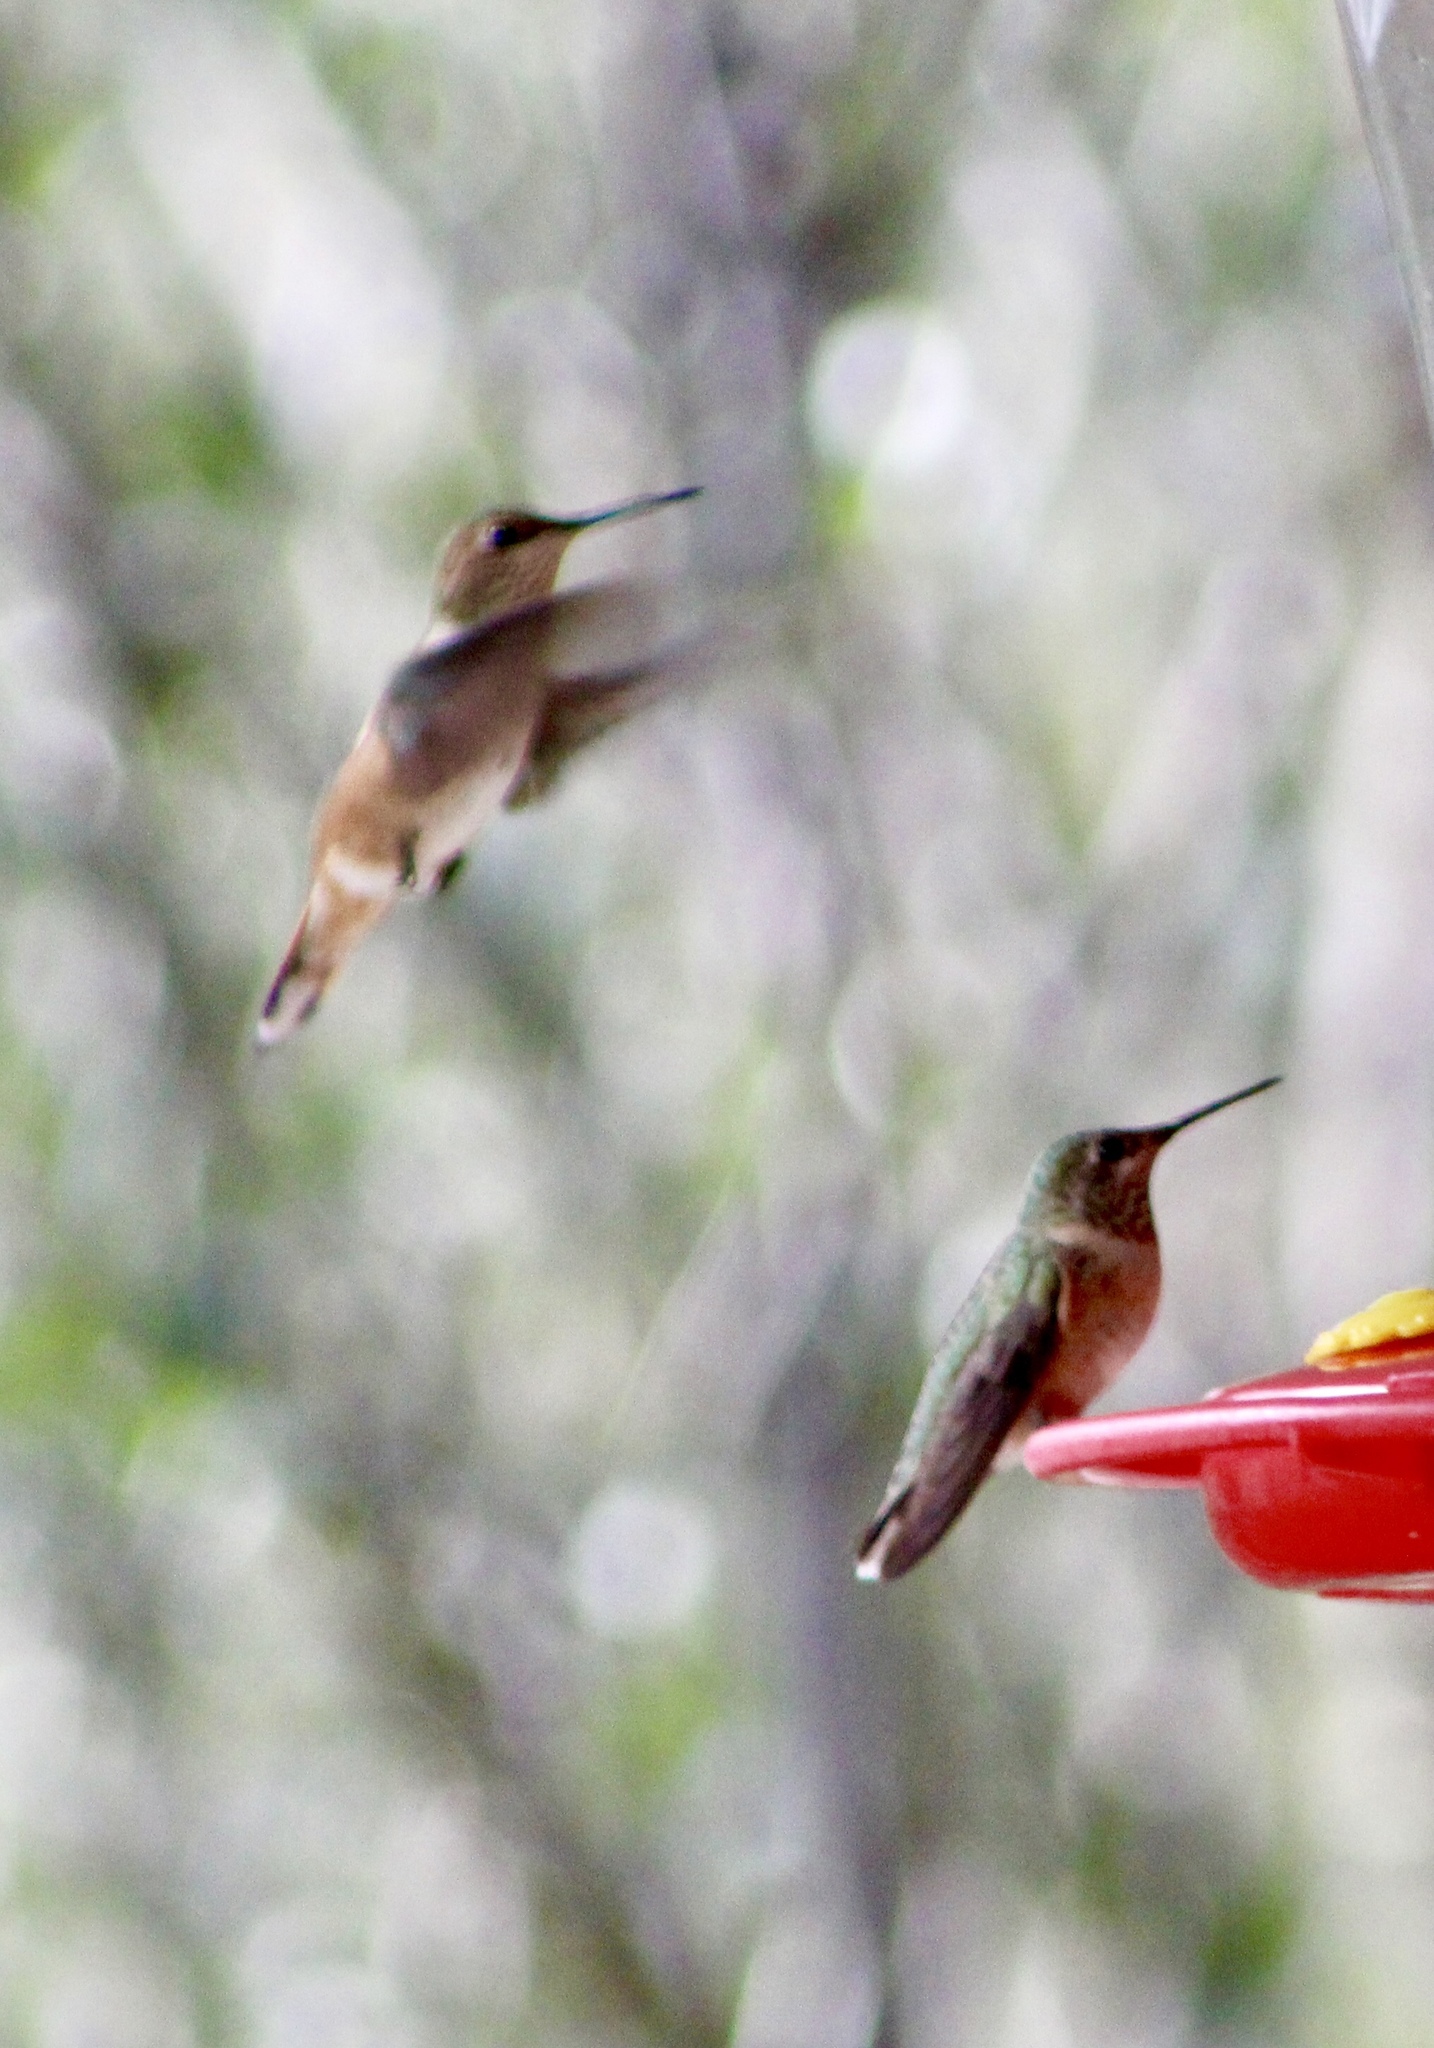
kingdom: Animalia
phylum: Chordata
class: Aves
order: Apodiformes
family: Trochilidae
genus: Selasphorus
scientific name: Selasphorus platycercus
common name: Broad-tailed hummingbird
